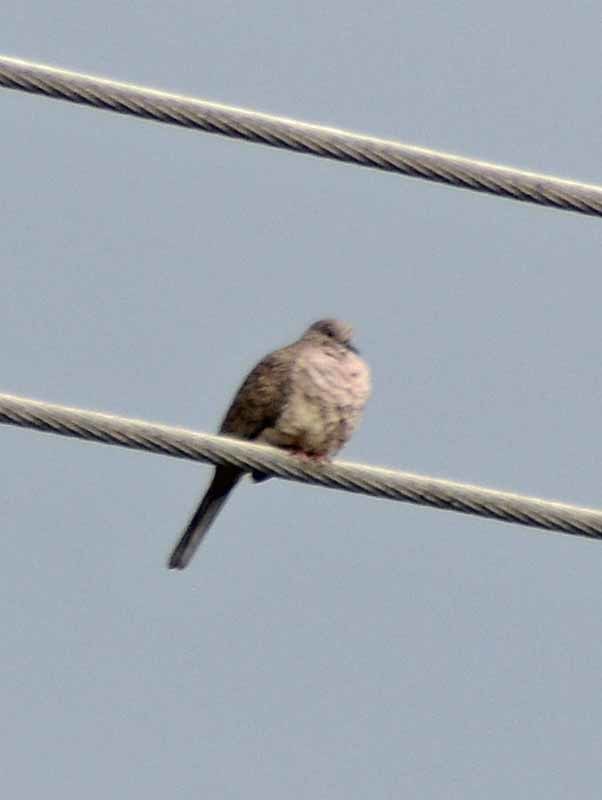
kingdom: Animalia
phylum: Chordata
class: Aves
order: Columbiformes
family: Columbidae
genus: Columbina
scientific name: Columbina inca
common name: Inca dove
